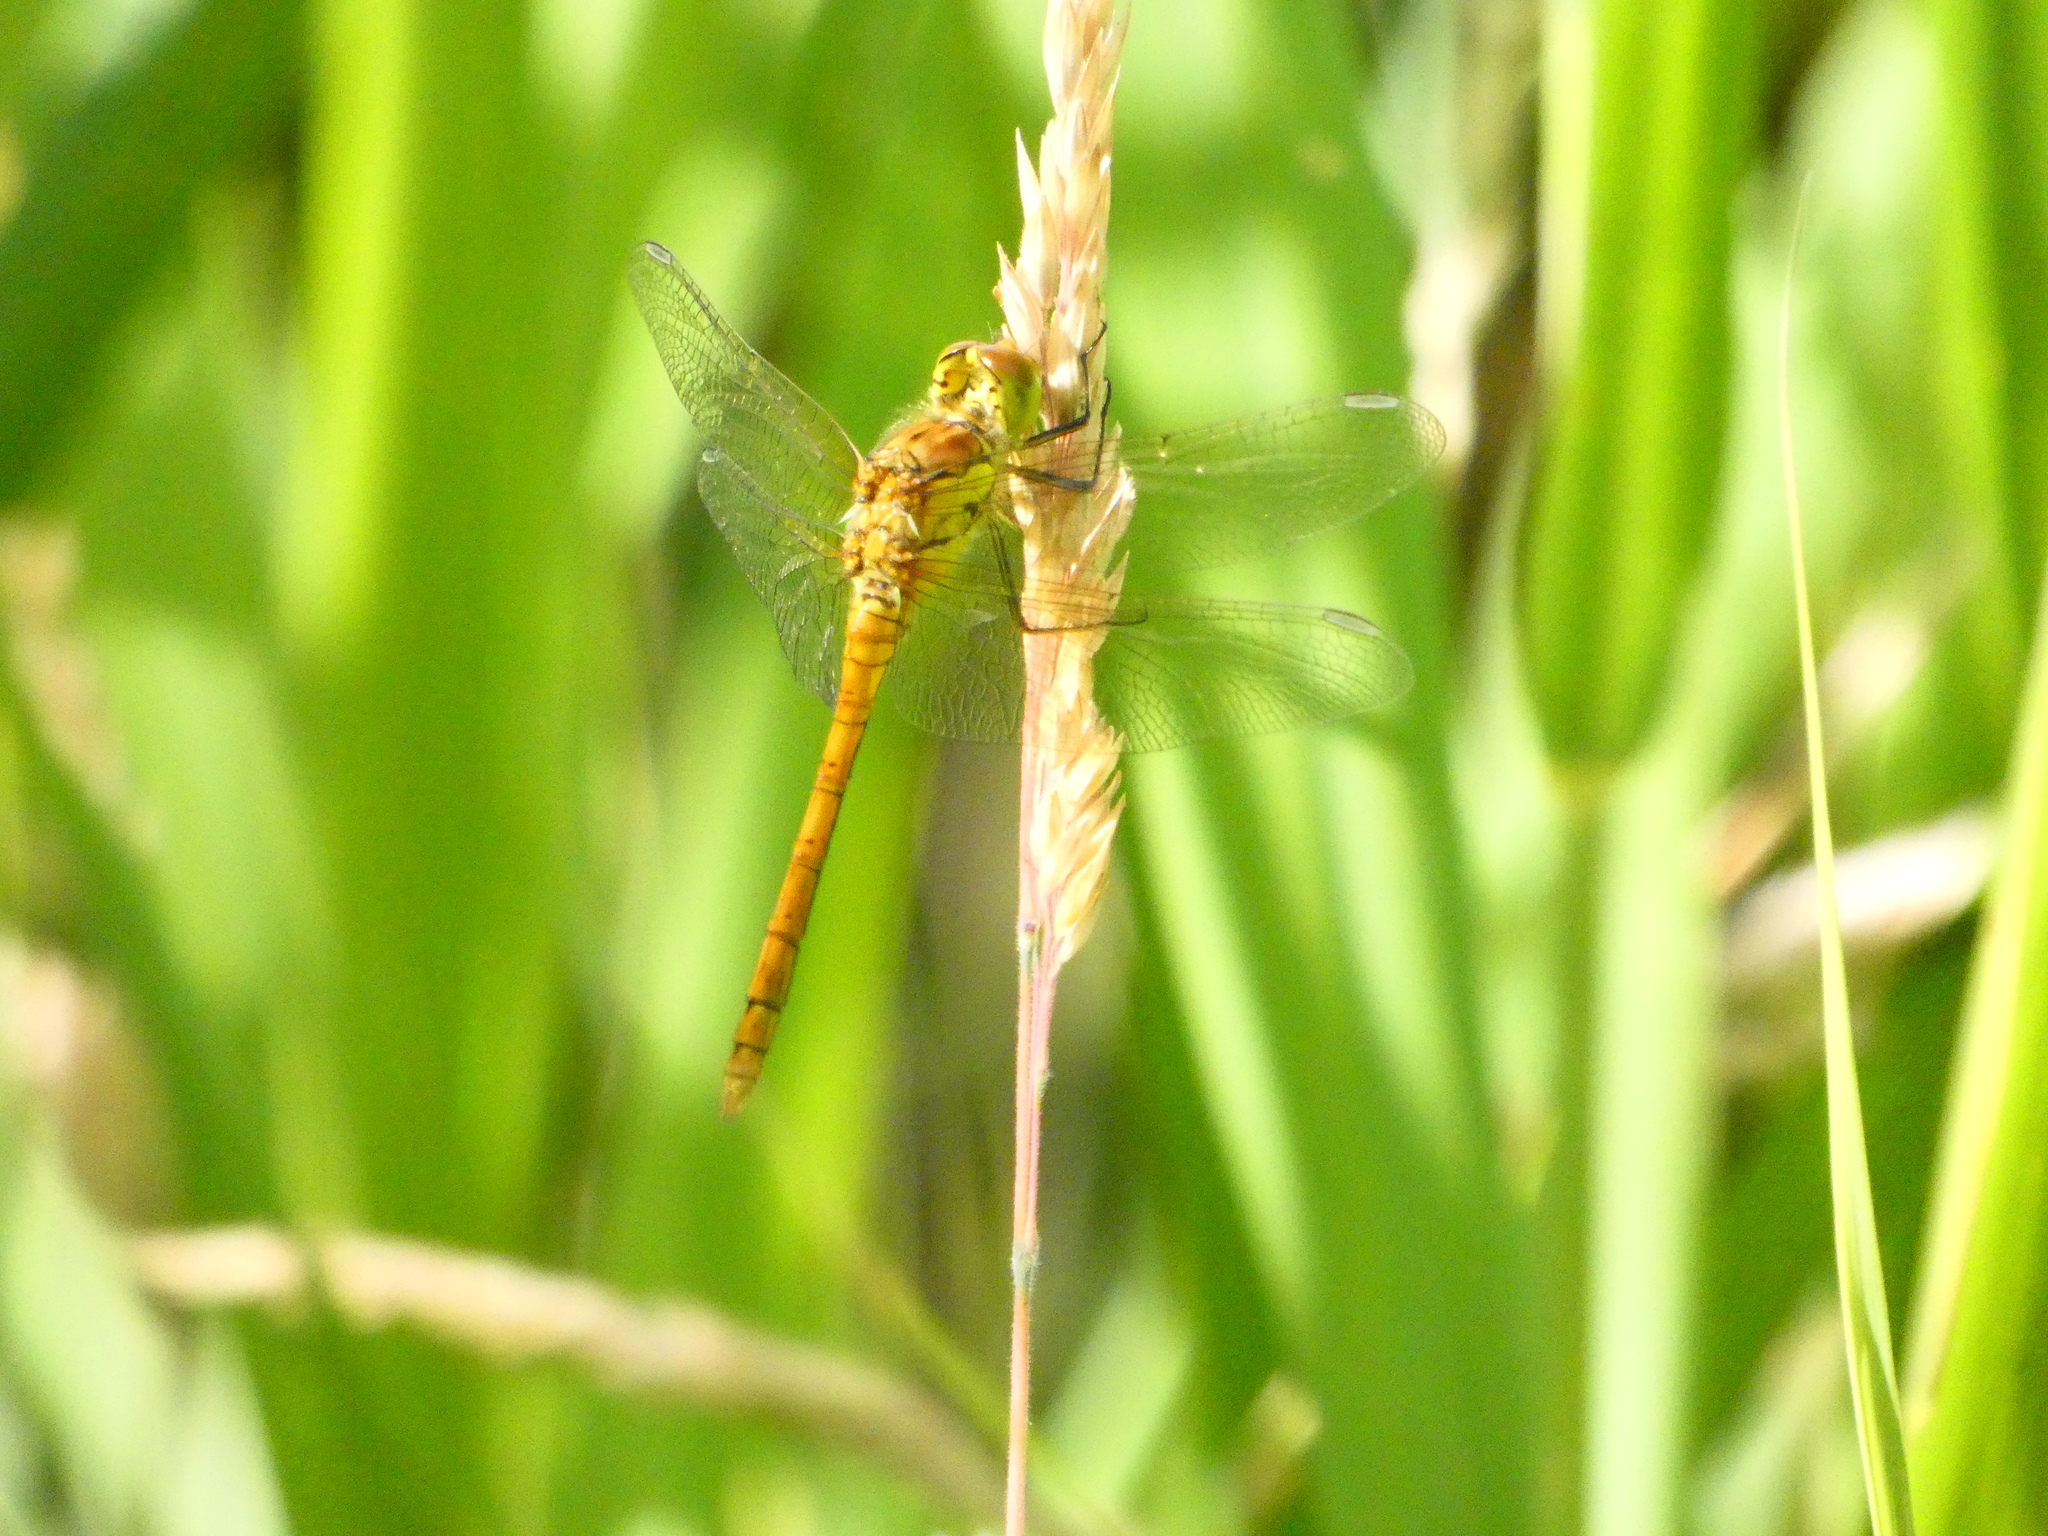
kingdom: Animalia
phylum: Arthropoda
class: Insecta
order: Odonata
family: Libellulidae
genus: Sympetrum
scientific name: Sympetrum striolatum
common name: Common darter
